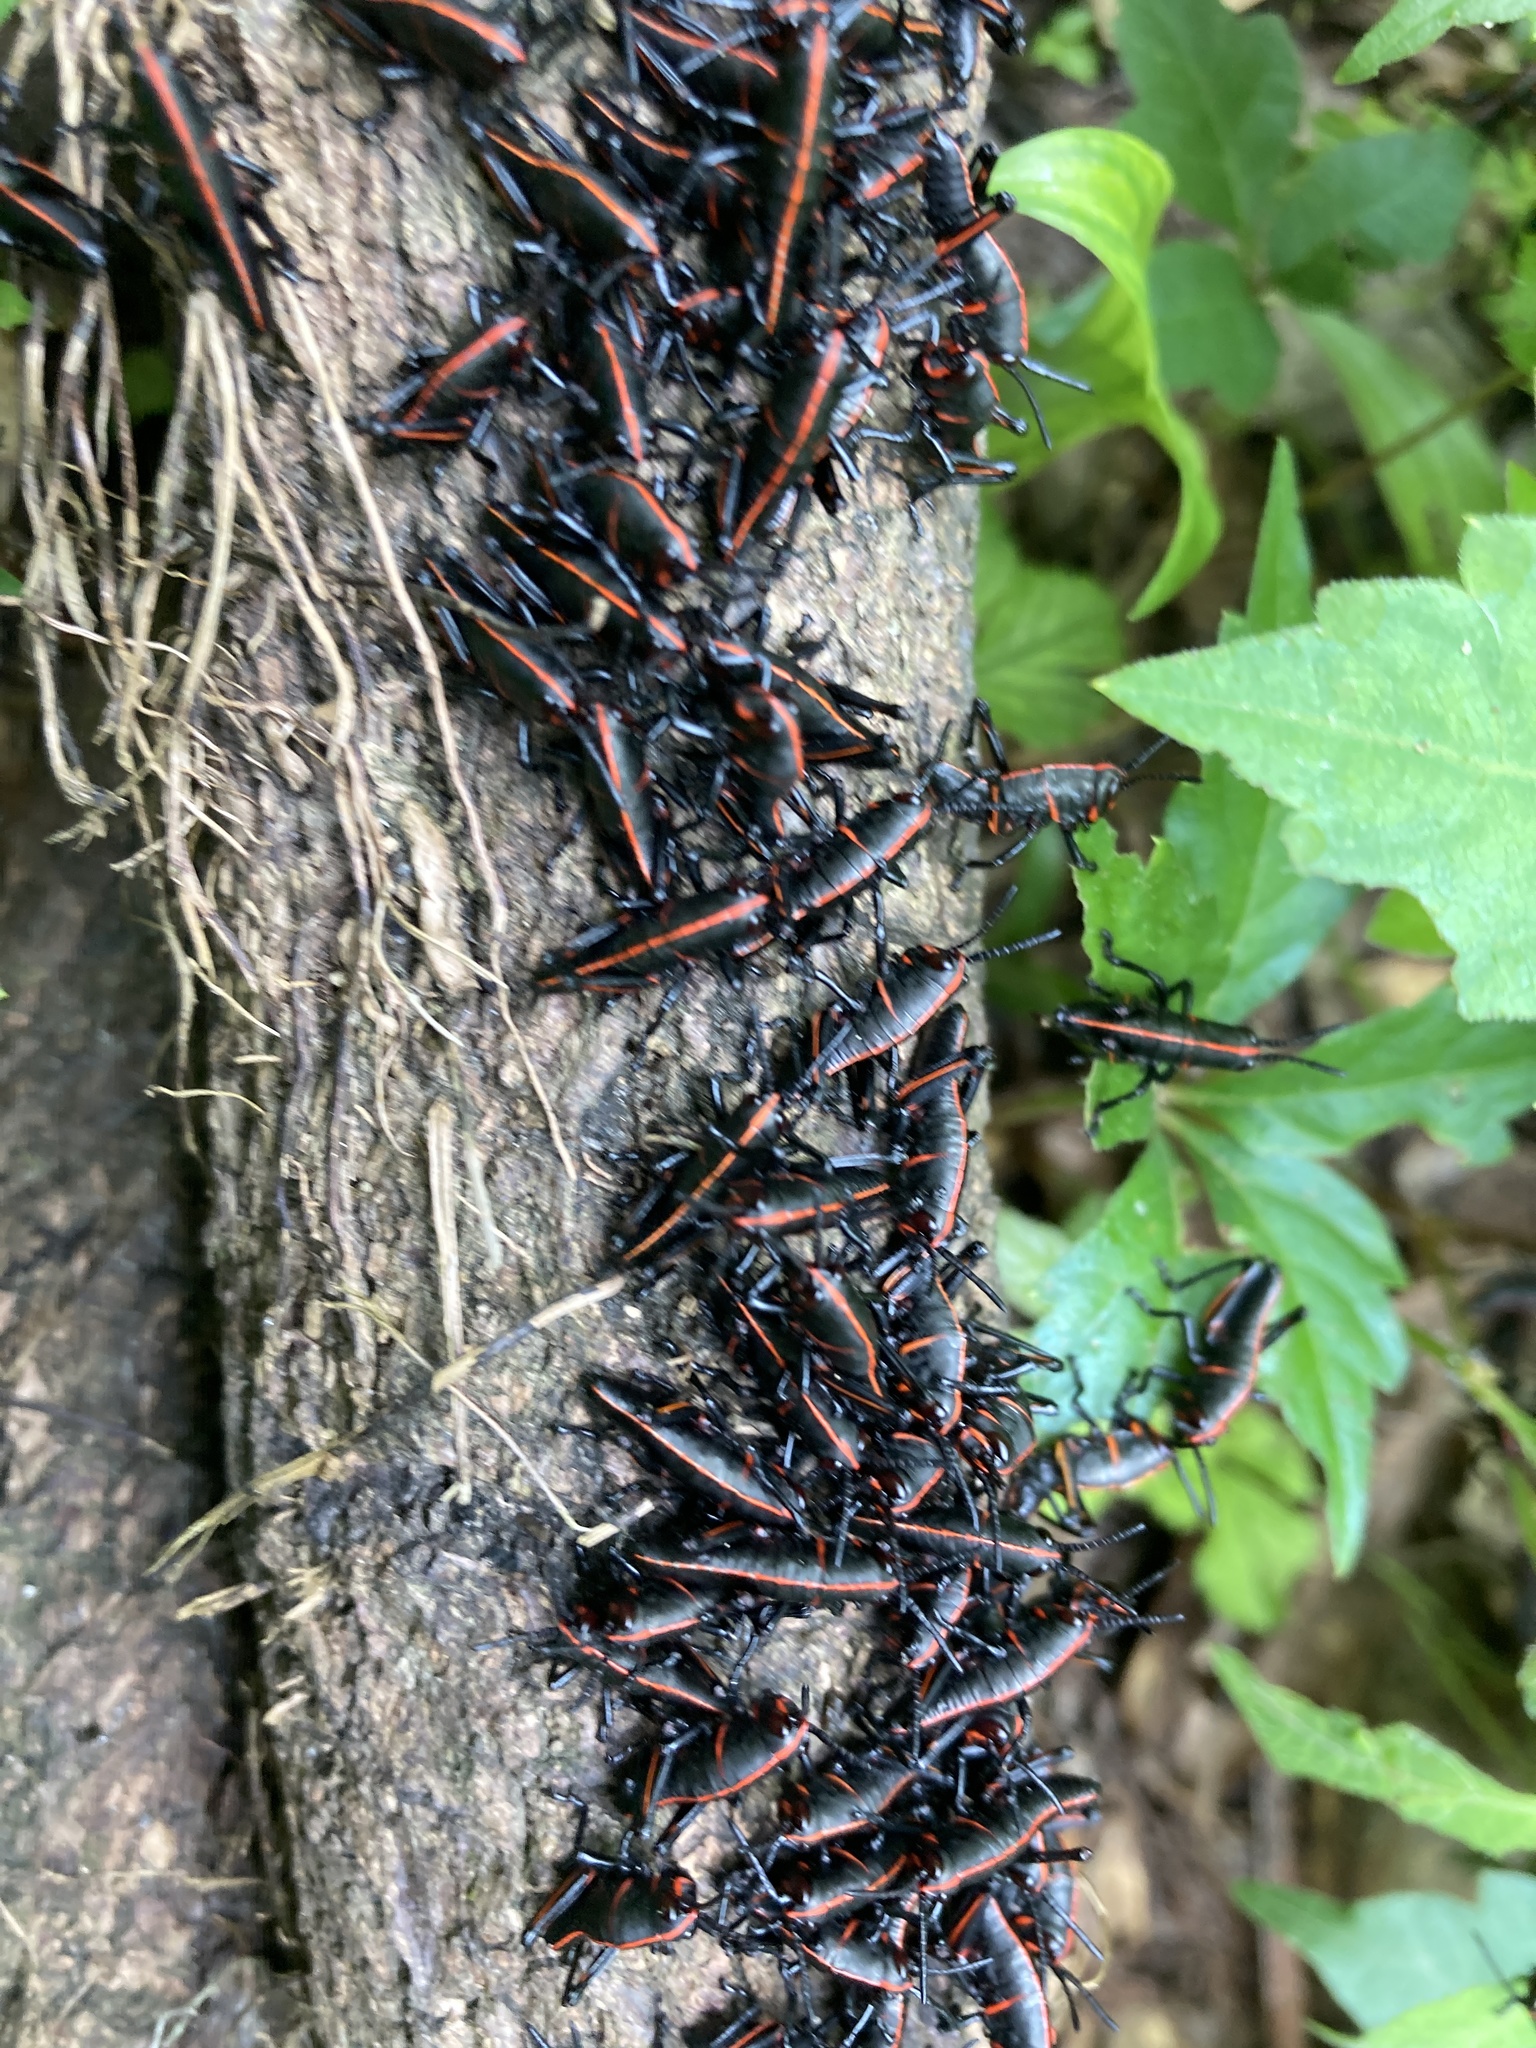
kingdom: Animalia
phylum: Arthropoda
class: Insecta
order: Orthoptera
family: Romaleidae
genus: Romalea
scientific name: Romalea microptera
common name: Eastern lubber grasshopper
